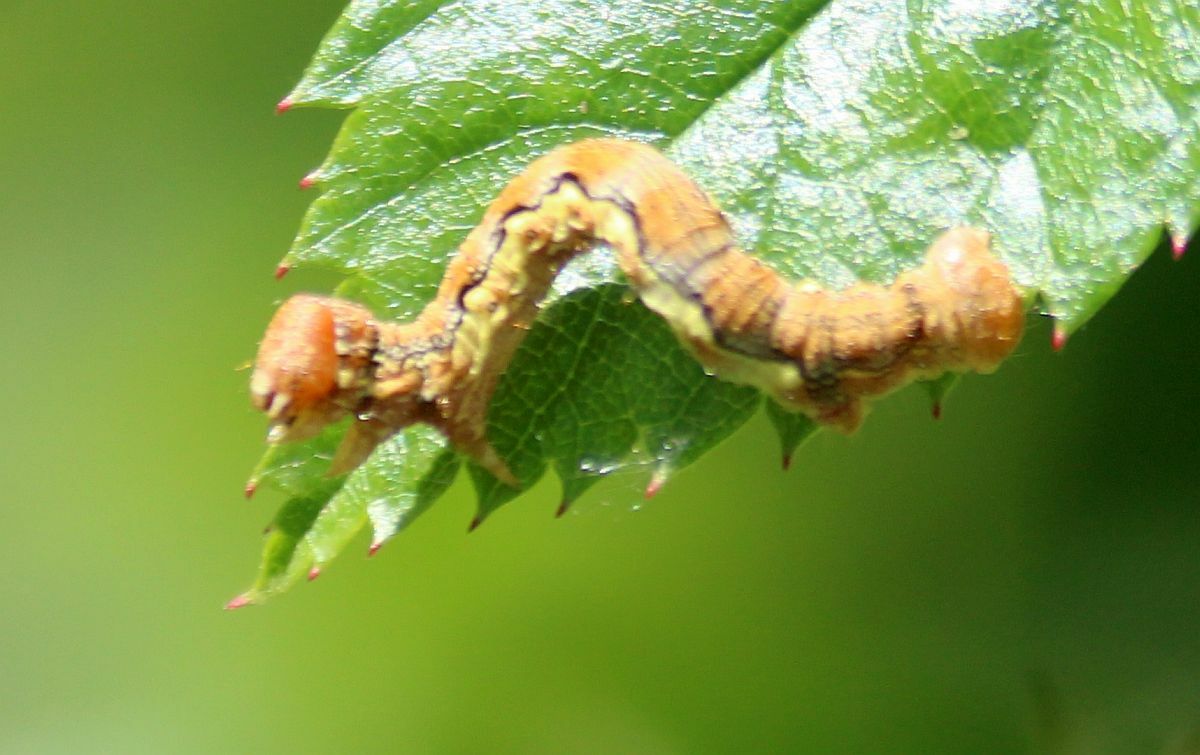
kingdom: Animalia
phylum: Arthropoda
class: Insecta
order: Lepidoptera
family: Geometridae
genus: Erannis
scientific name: Erannis defoliaria
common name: Mottled umber
